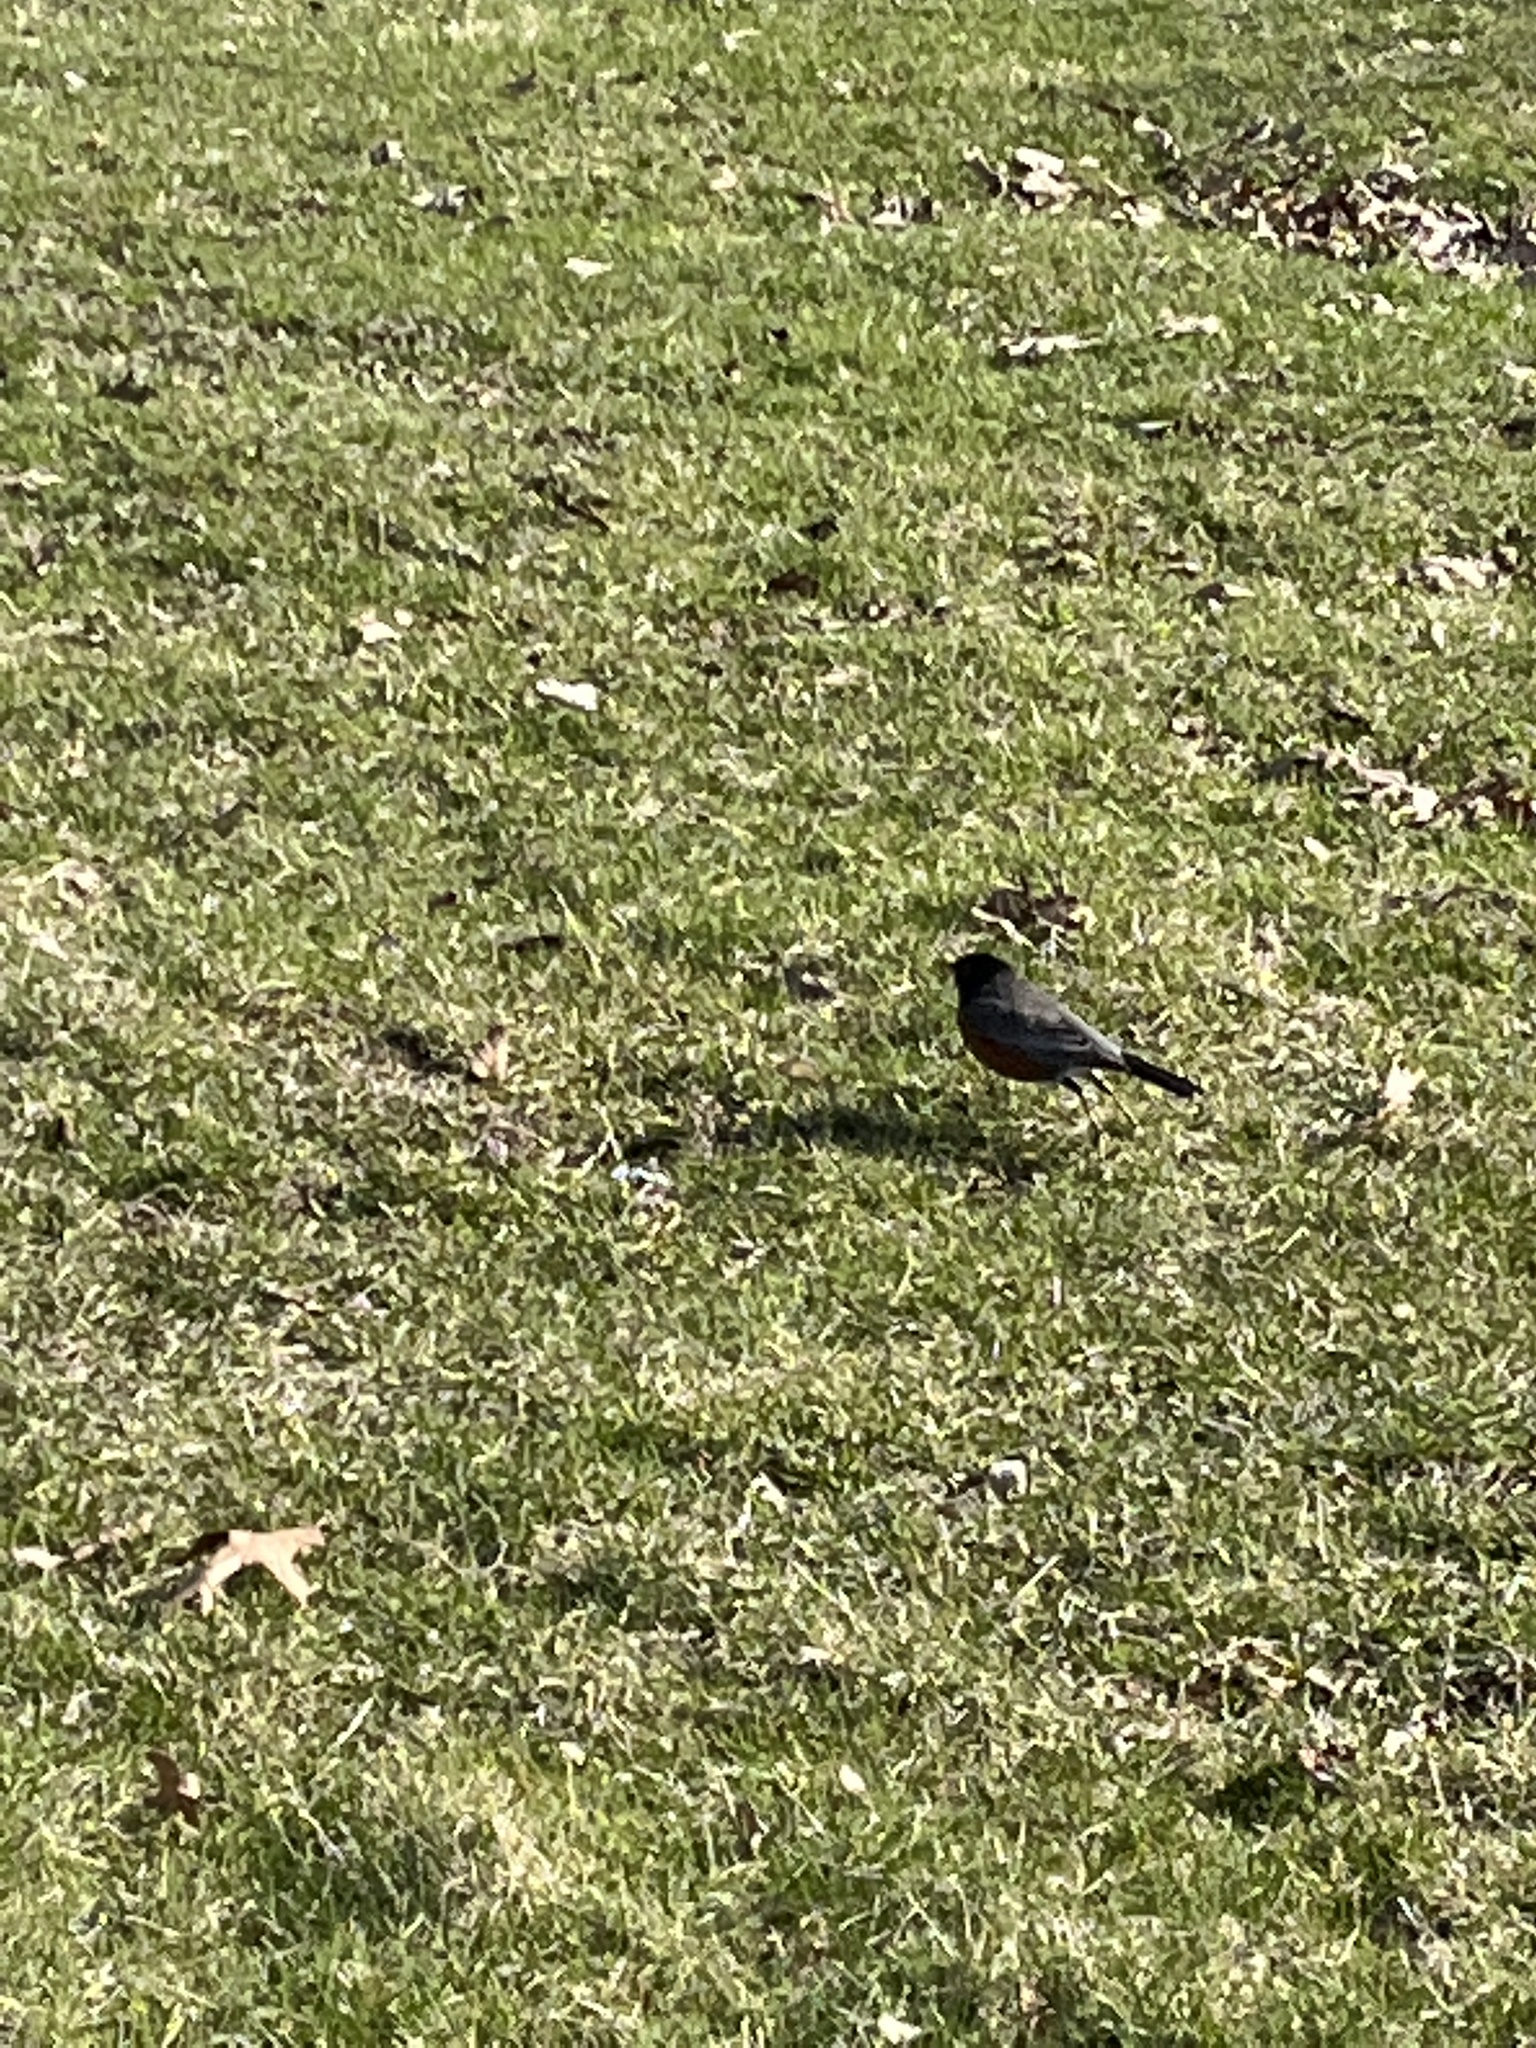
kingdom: Animalia
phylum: Chordata
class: Aves
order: Passeriformes
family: Turdidae
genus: Turdus
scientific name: Turdus migratorius
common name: American robin
